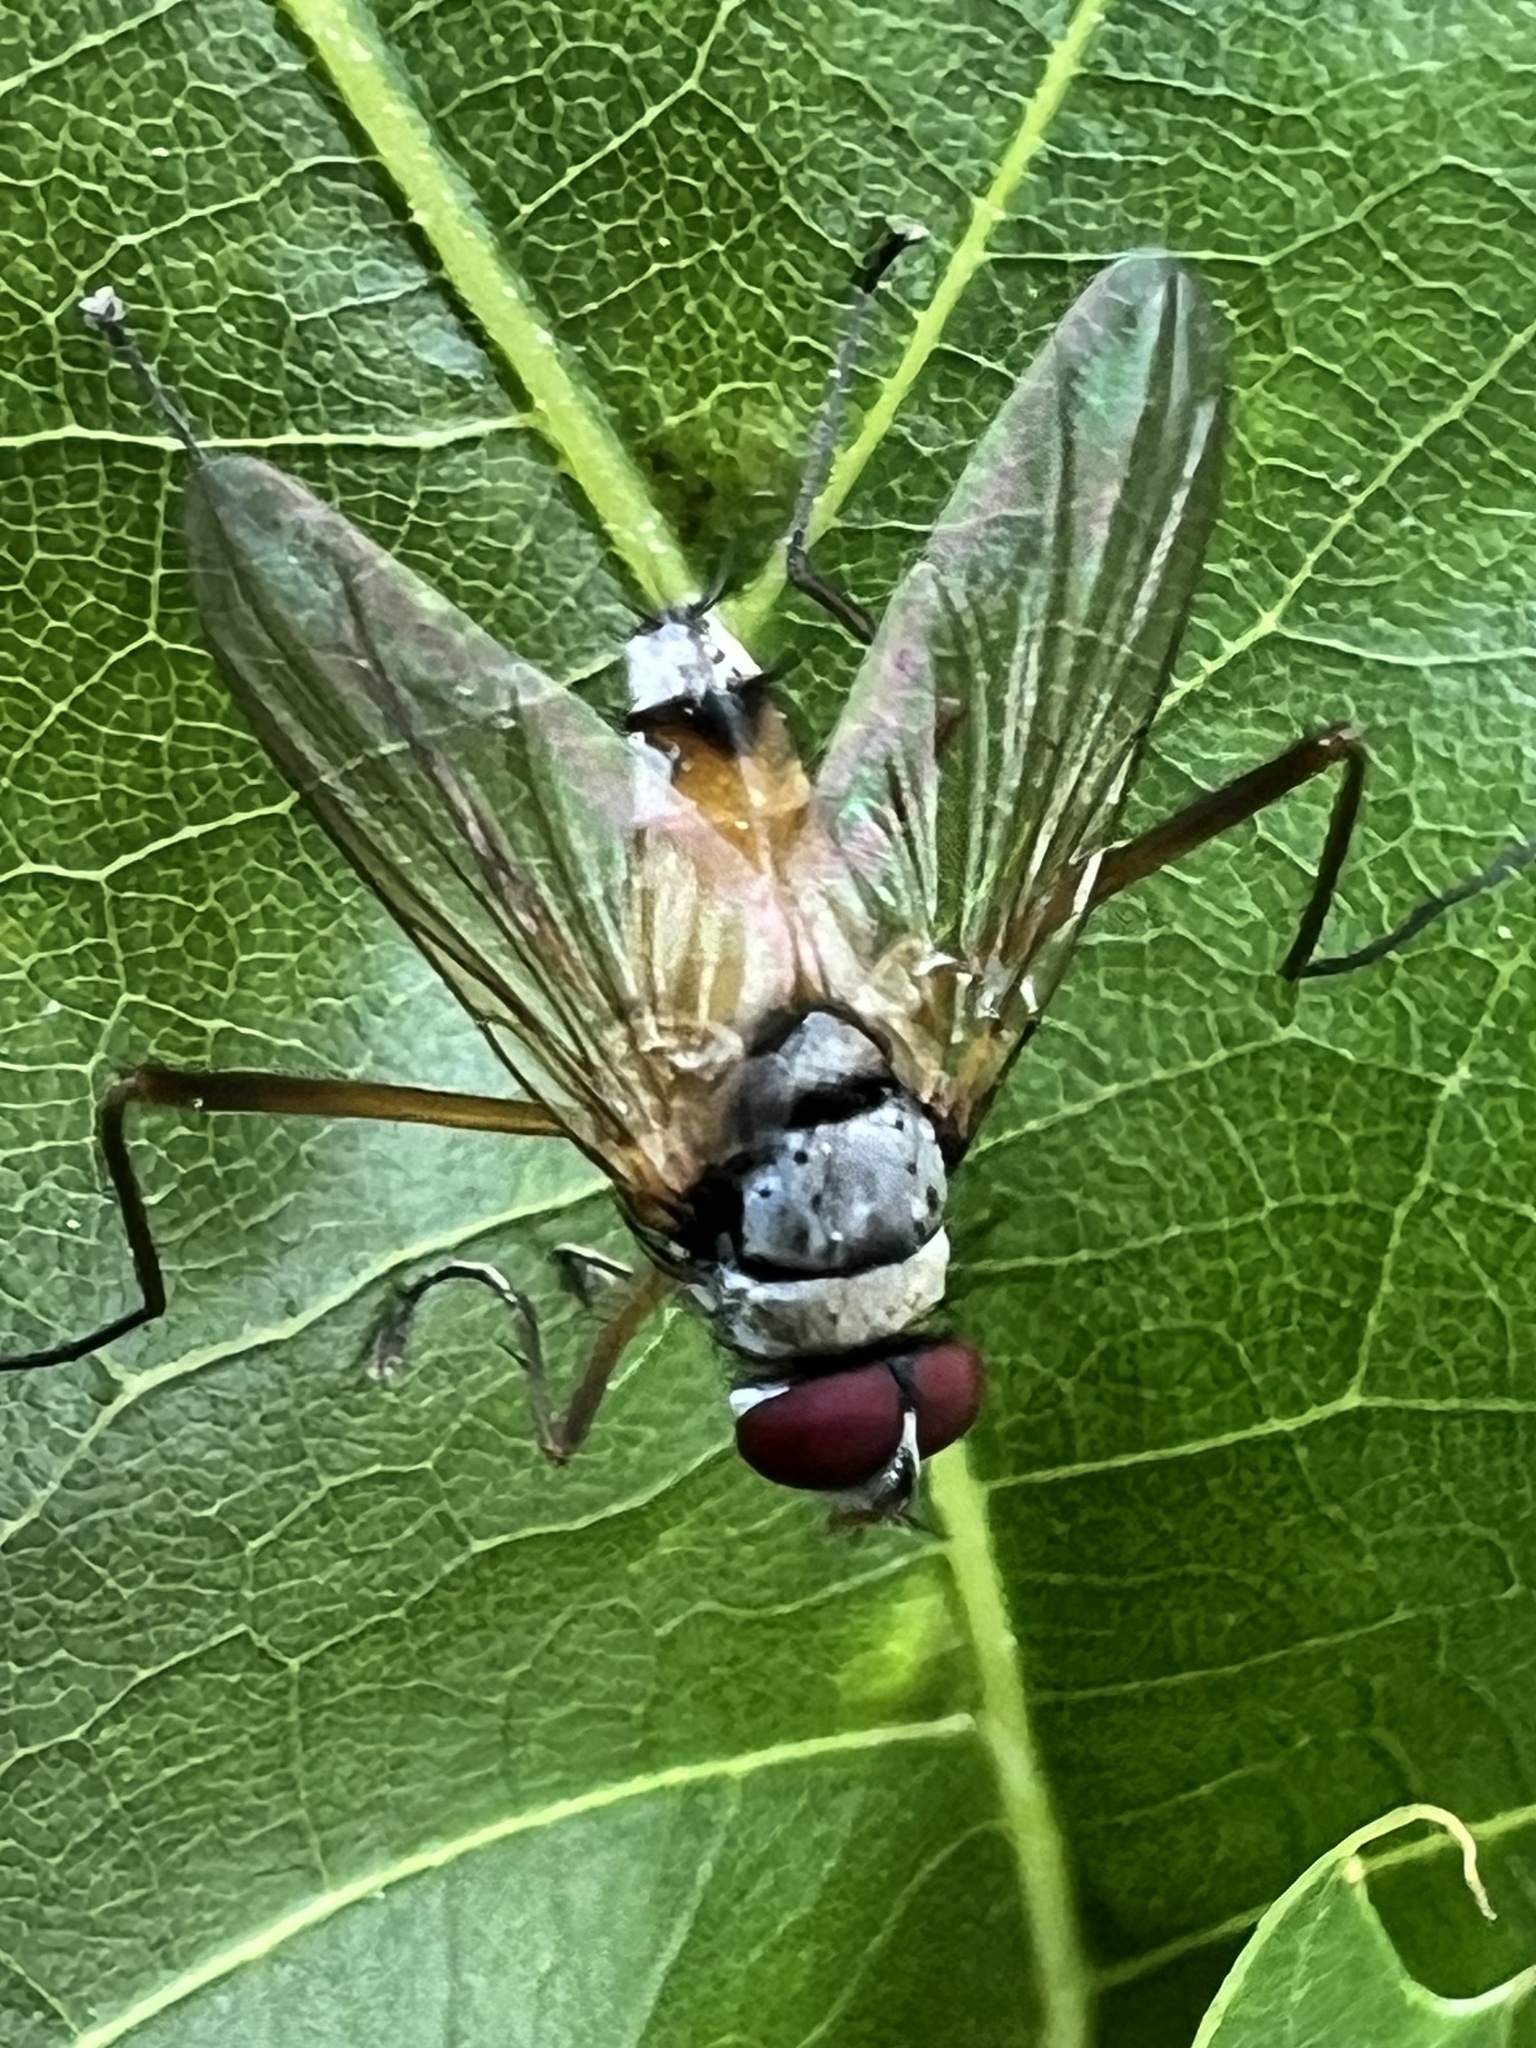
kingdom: Animalia
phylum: Arthropoda
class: Insecta
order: Diptera
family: Tachinidae
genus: Cholomyia
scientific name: Cholomyia inaequipes
